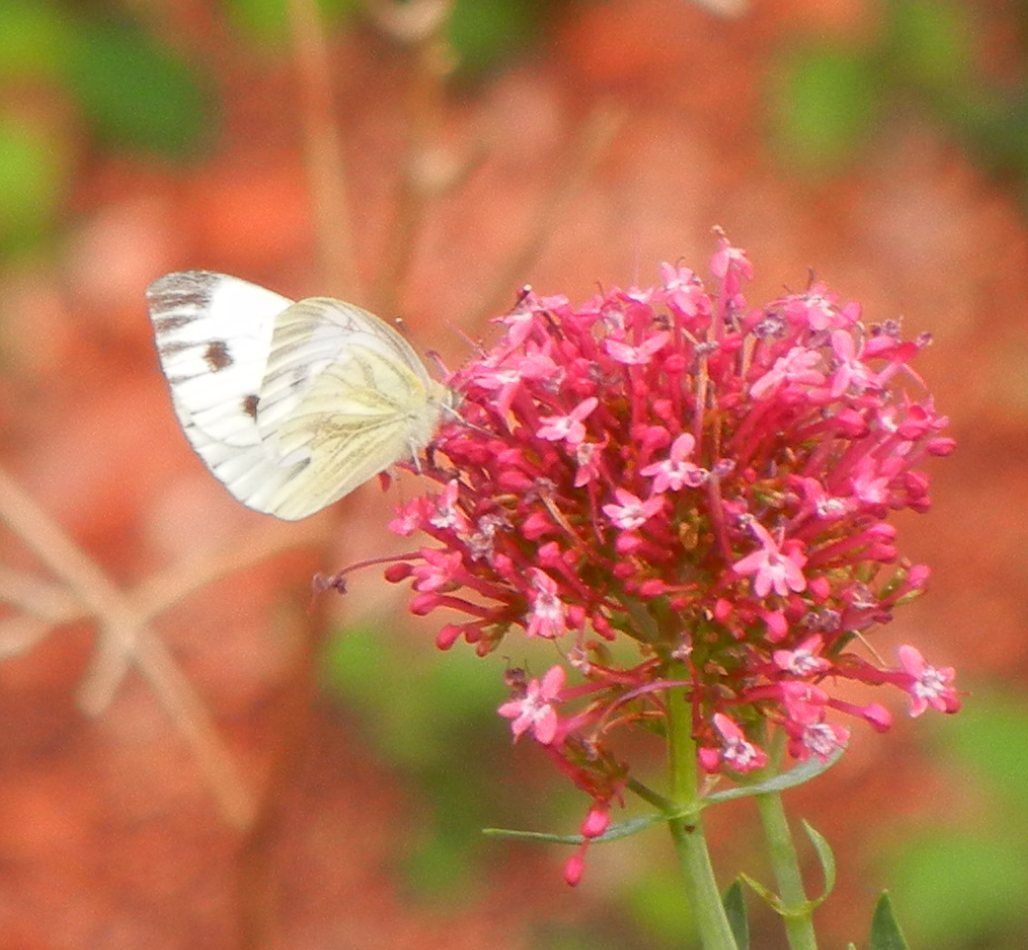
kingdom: Animalia
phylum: Arthropoda
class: Insecta
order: Lepidoptera
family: Pieridae
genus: Pieris
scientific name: Pieris napi
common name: Green-veined white
